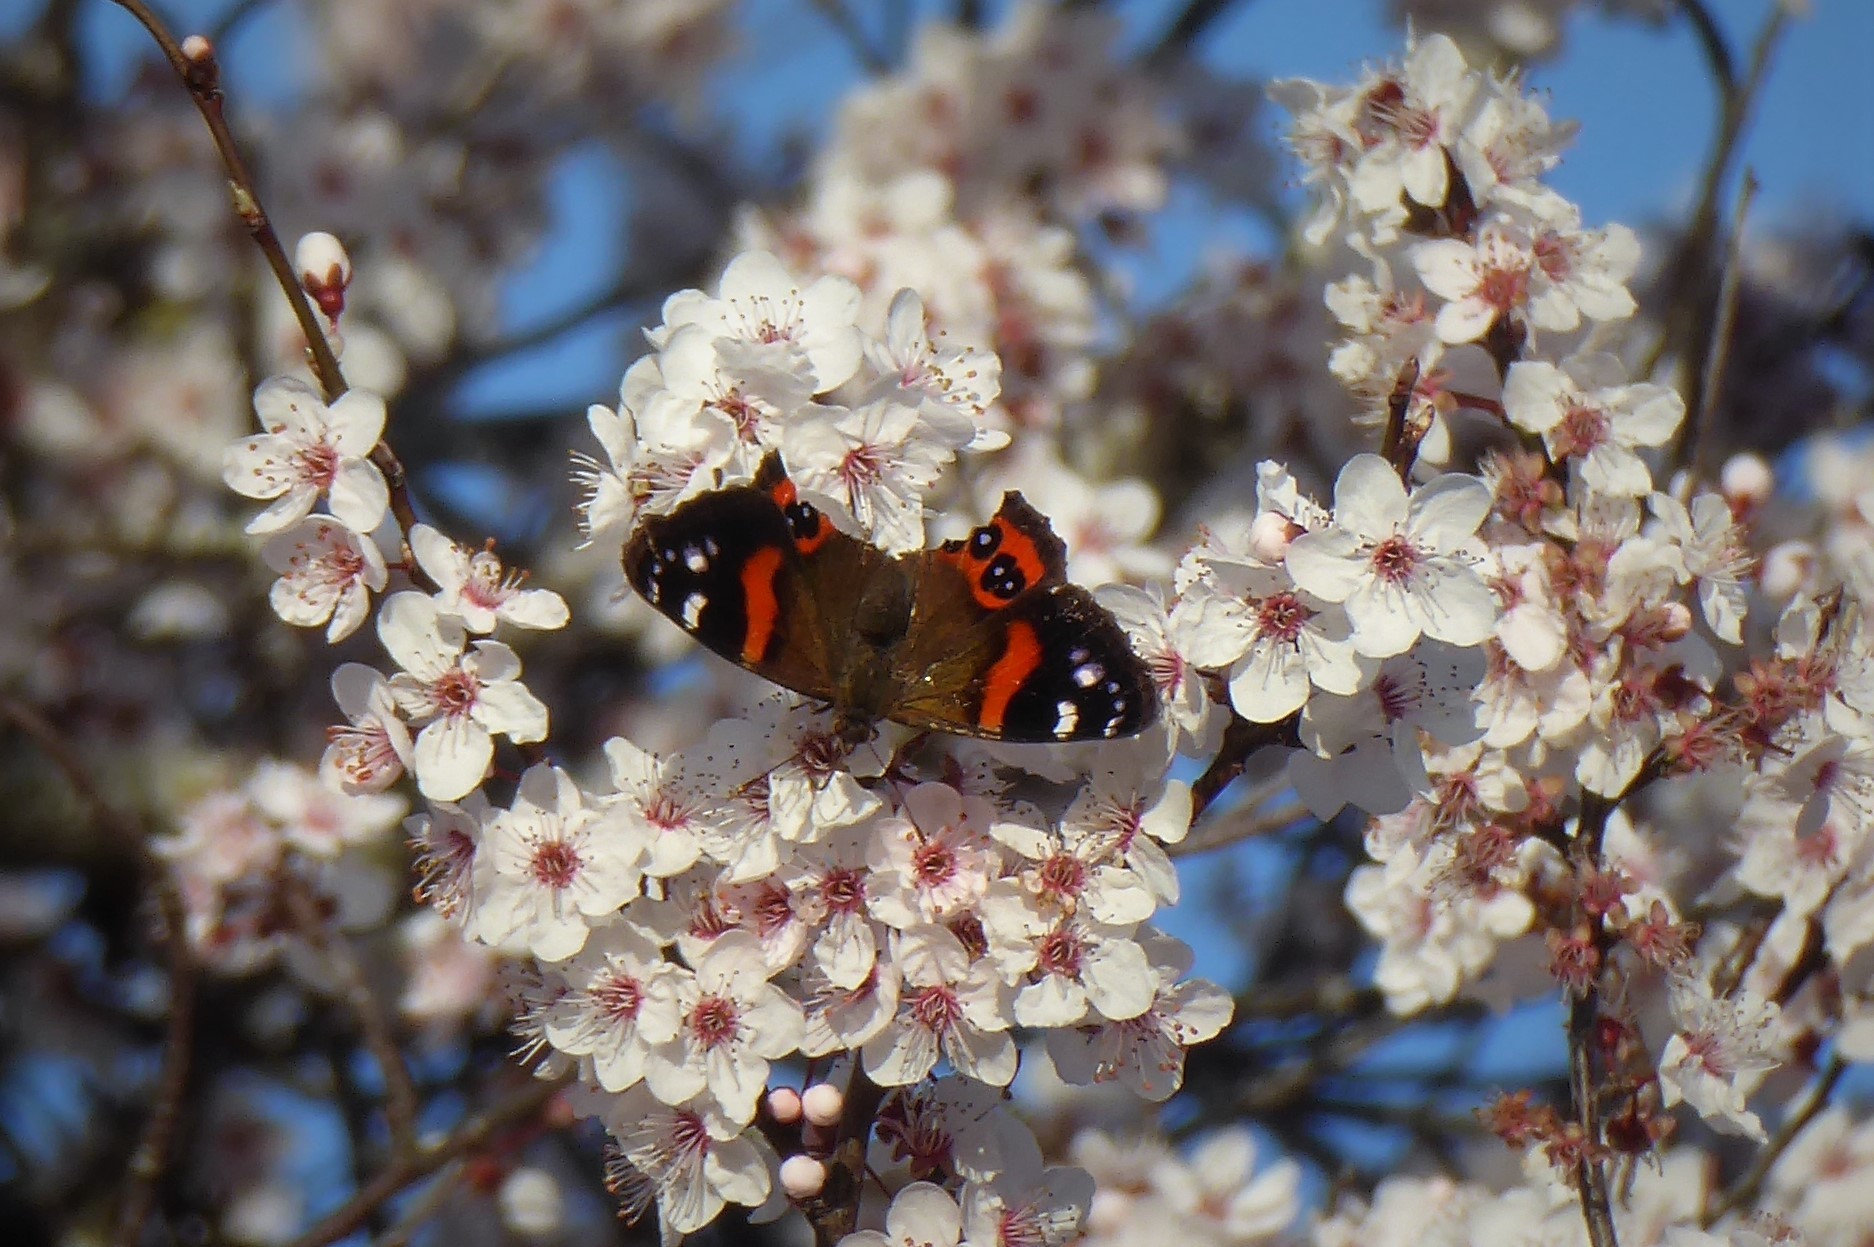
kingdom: Animalia
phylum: Arthropoda
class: Insecta
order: Lepidoptera
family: Nymphalidae
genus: Vanessa
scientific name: Vanessa gonerilla
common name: New zealand red admiral
